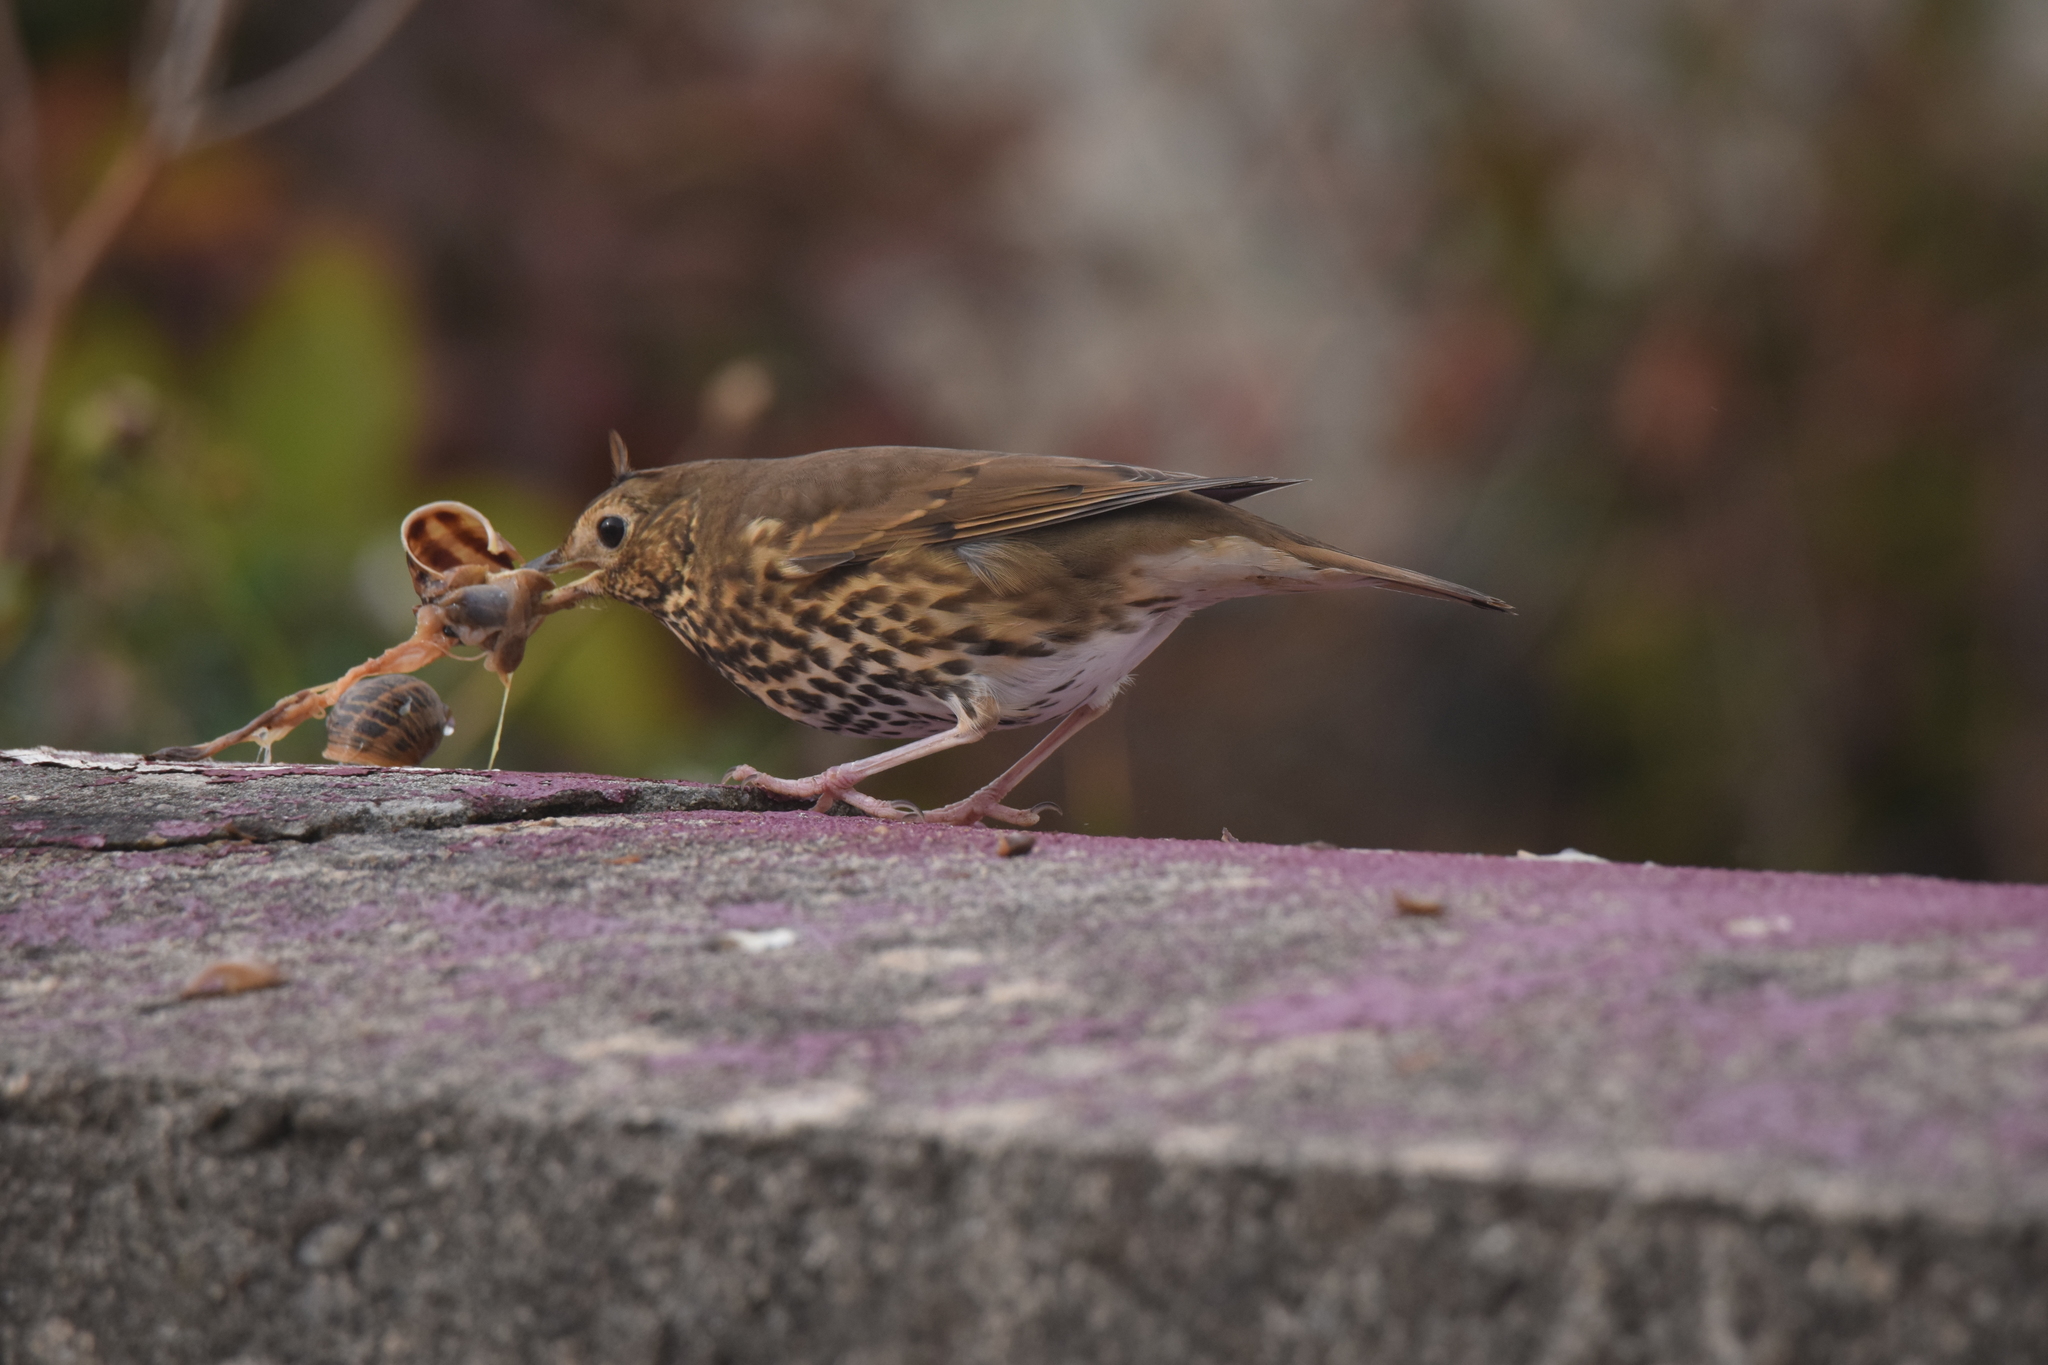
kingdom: Animalia
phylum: Chordata
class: Aves
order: Passeriformes
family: Turdidae
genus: Turdus
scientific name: Turdus philomelos
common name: Song thrush
